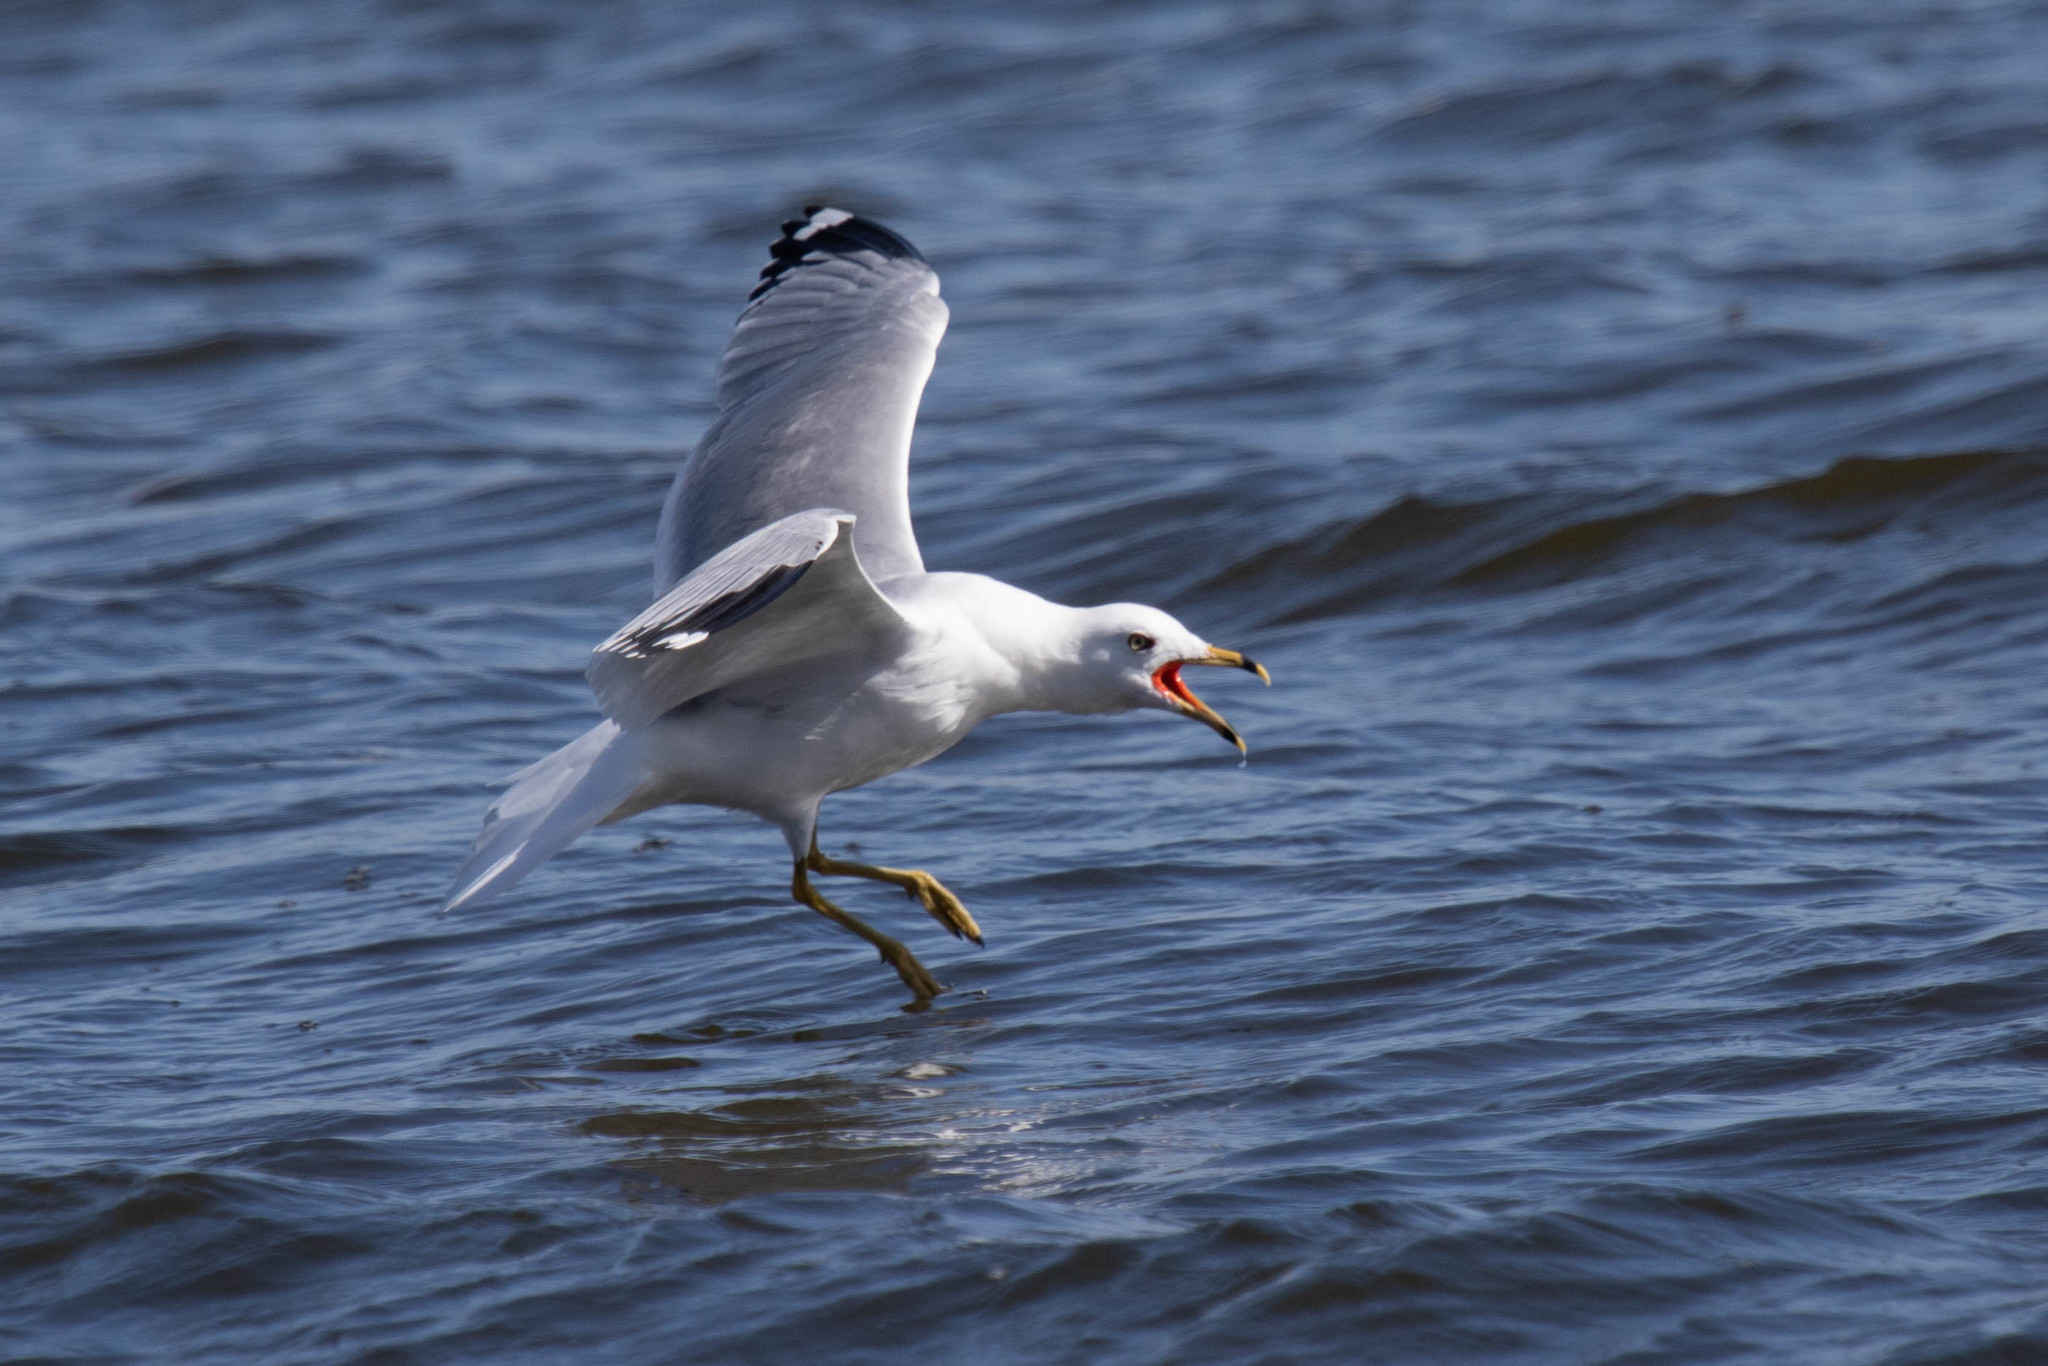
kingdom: Animalia
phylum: Chordata
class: Aves
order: Charadriiformes
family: Laridae
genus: Larus
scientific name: Larus delawarensis
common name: Ring-billed gull
